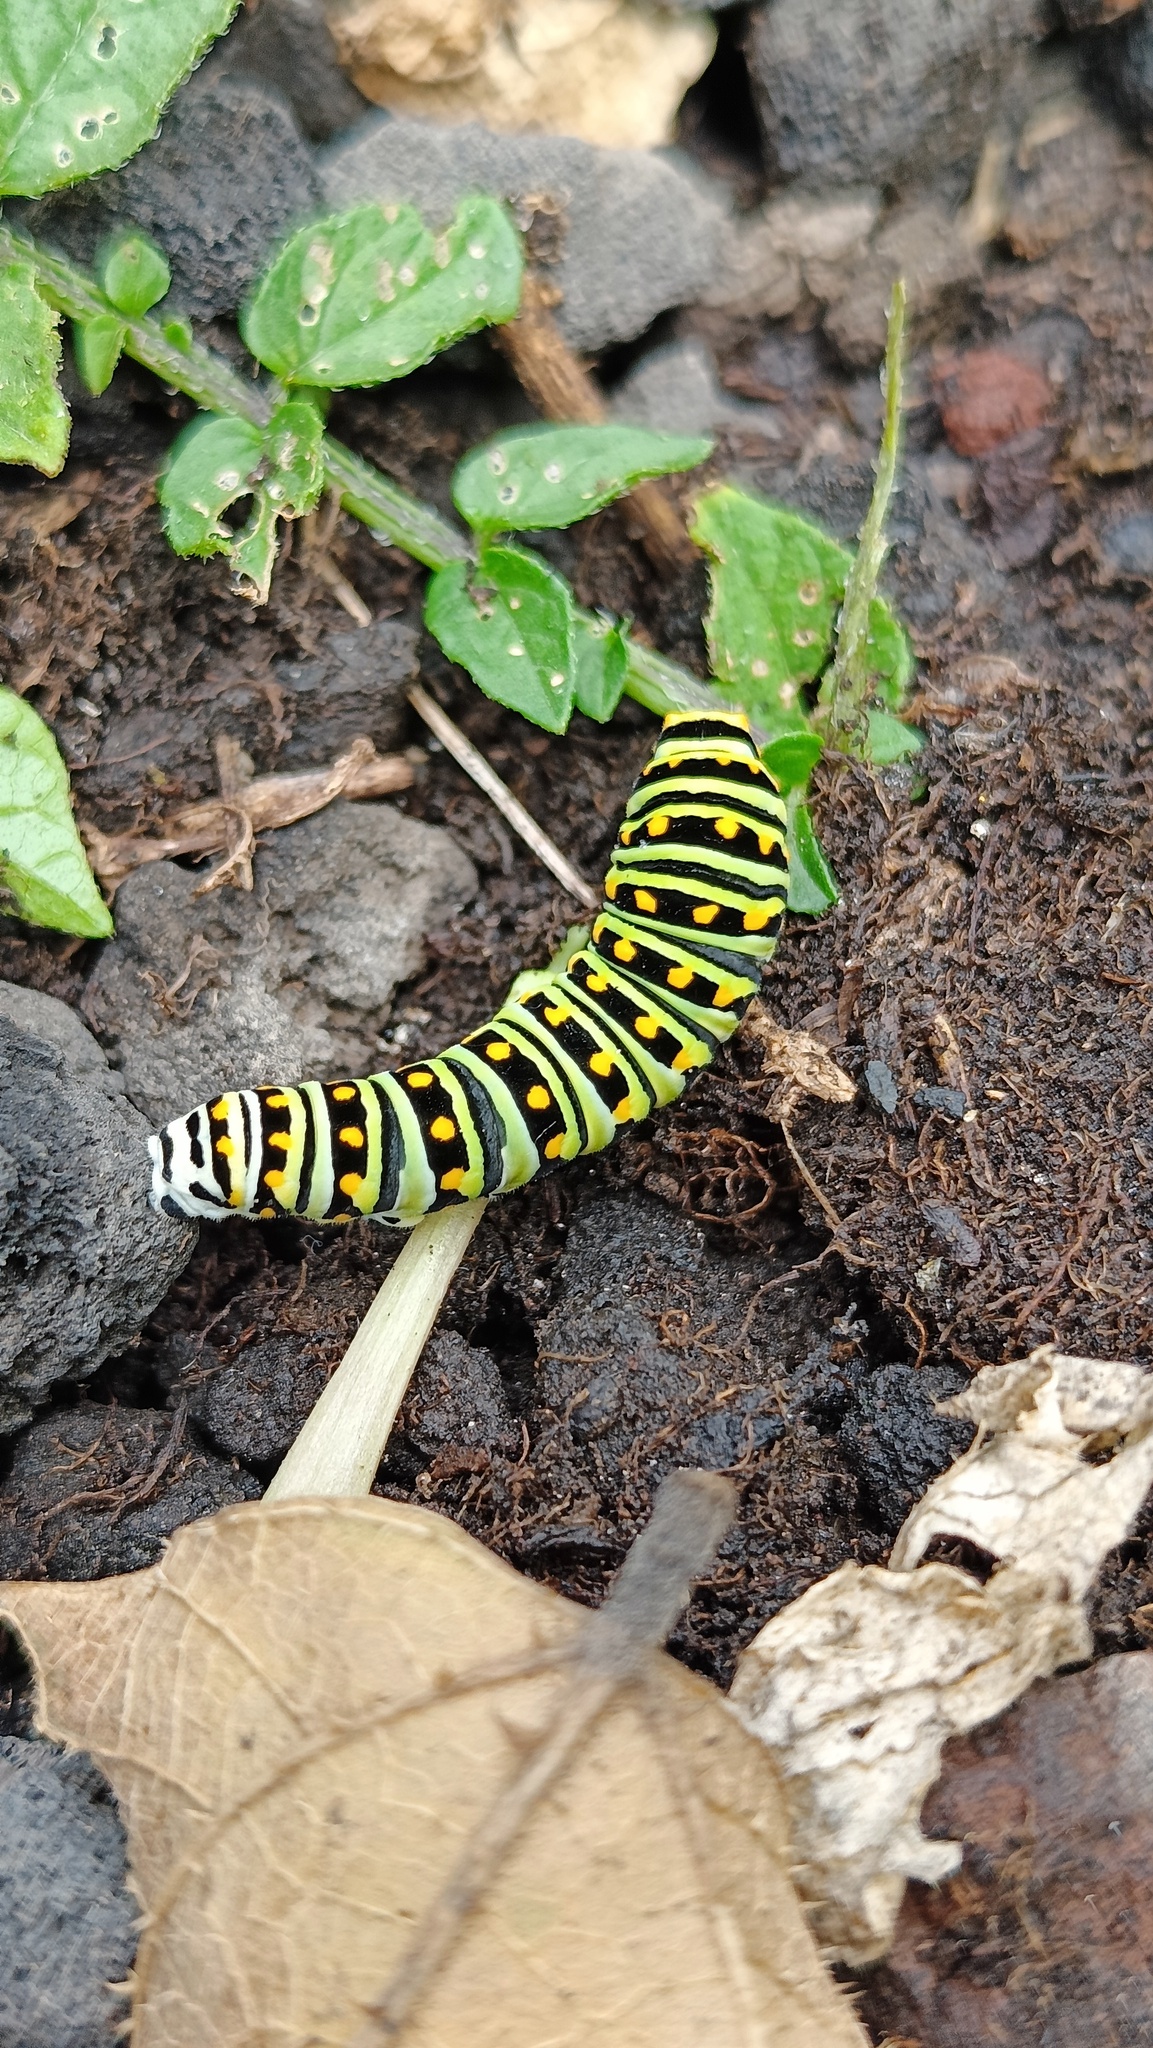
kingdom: Animalia
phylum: Arthropoda
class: Insecta
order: Lepidoptera
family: Papilionidae
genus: Papilio
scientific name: Papilio polyxenes
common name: Black swallowtail
